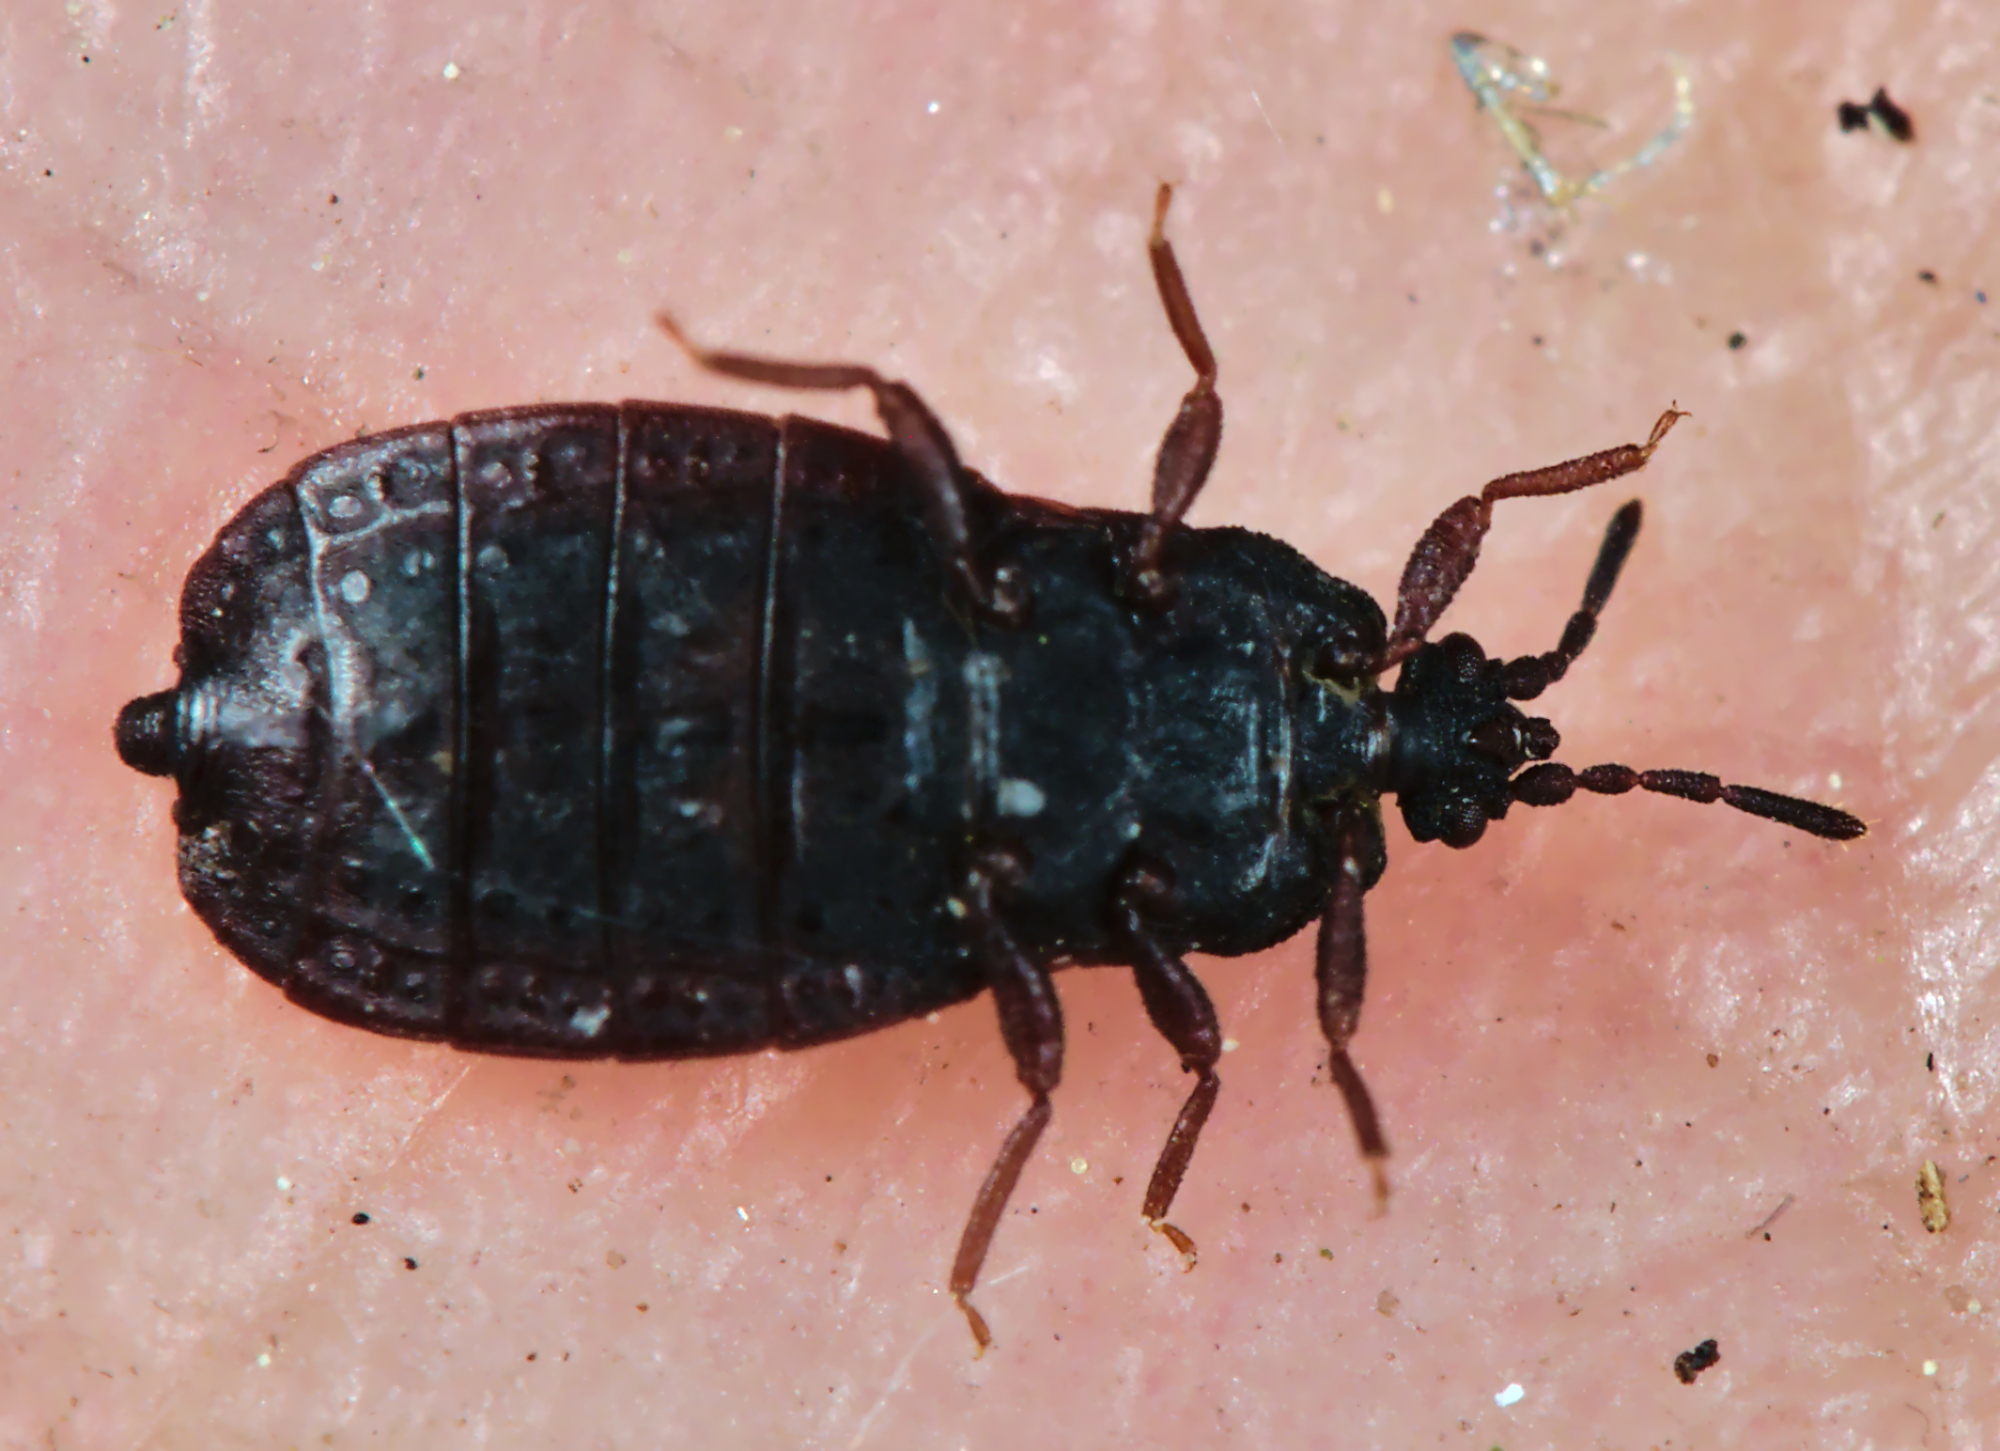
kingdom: Animalia
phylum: Arthropoda
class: Insecta
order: Hemiptera
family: Aradidae
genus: Aneurus
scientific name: Aneurus avenius
